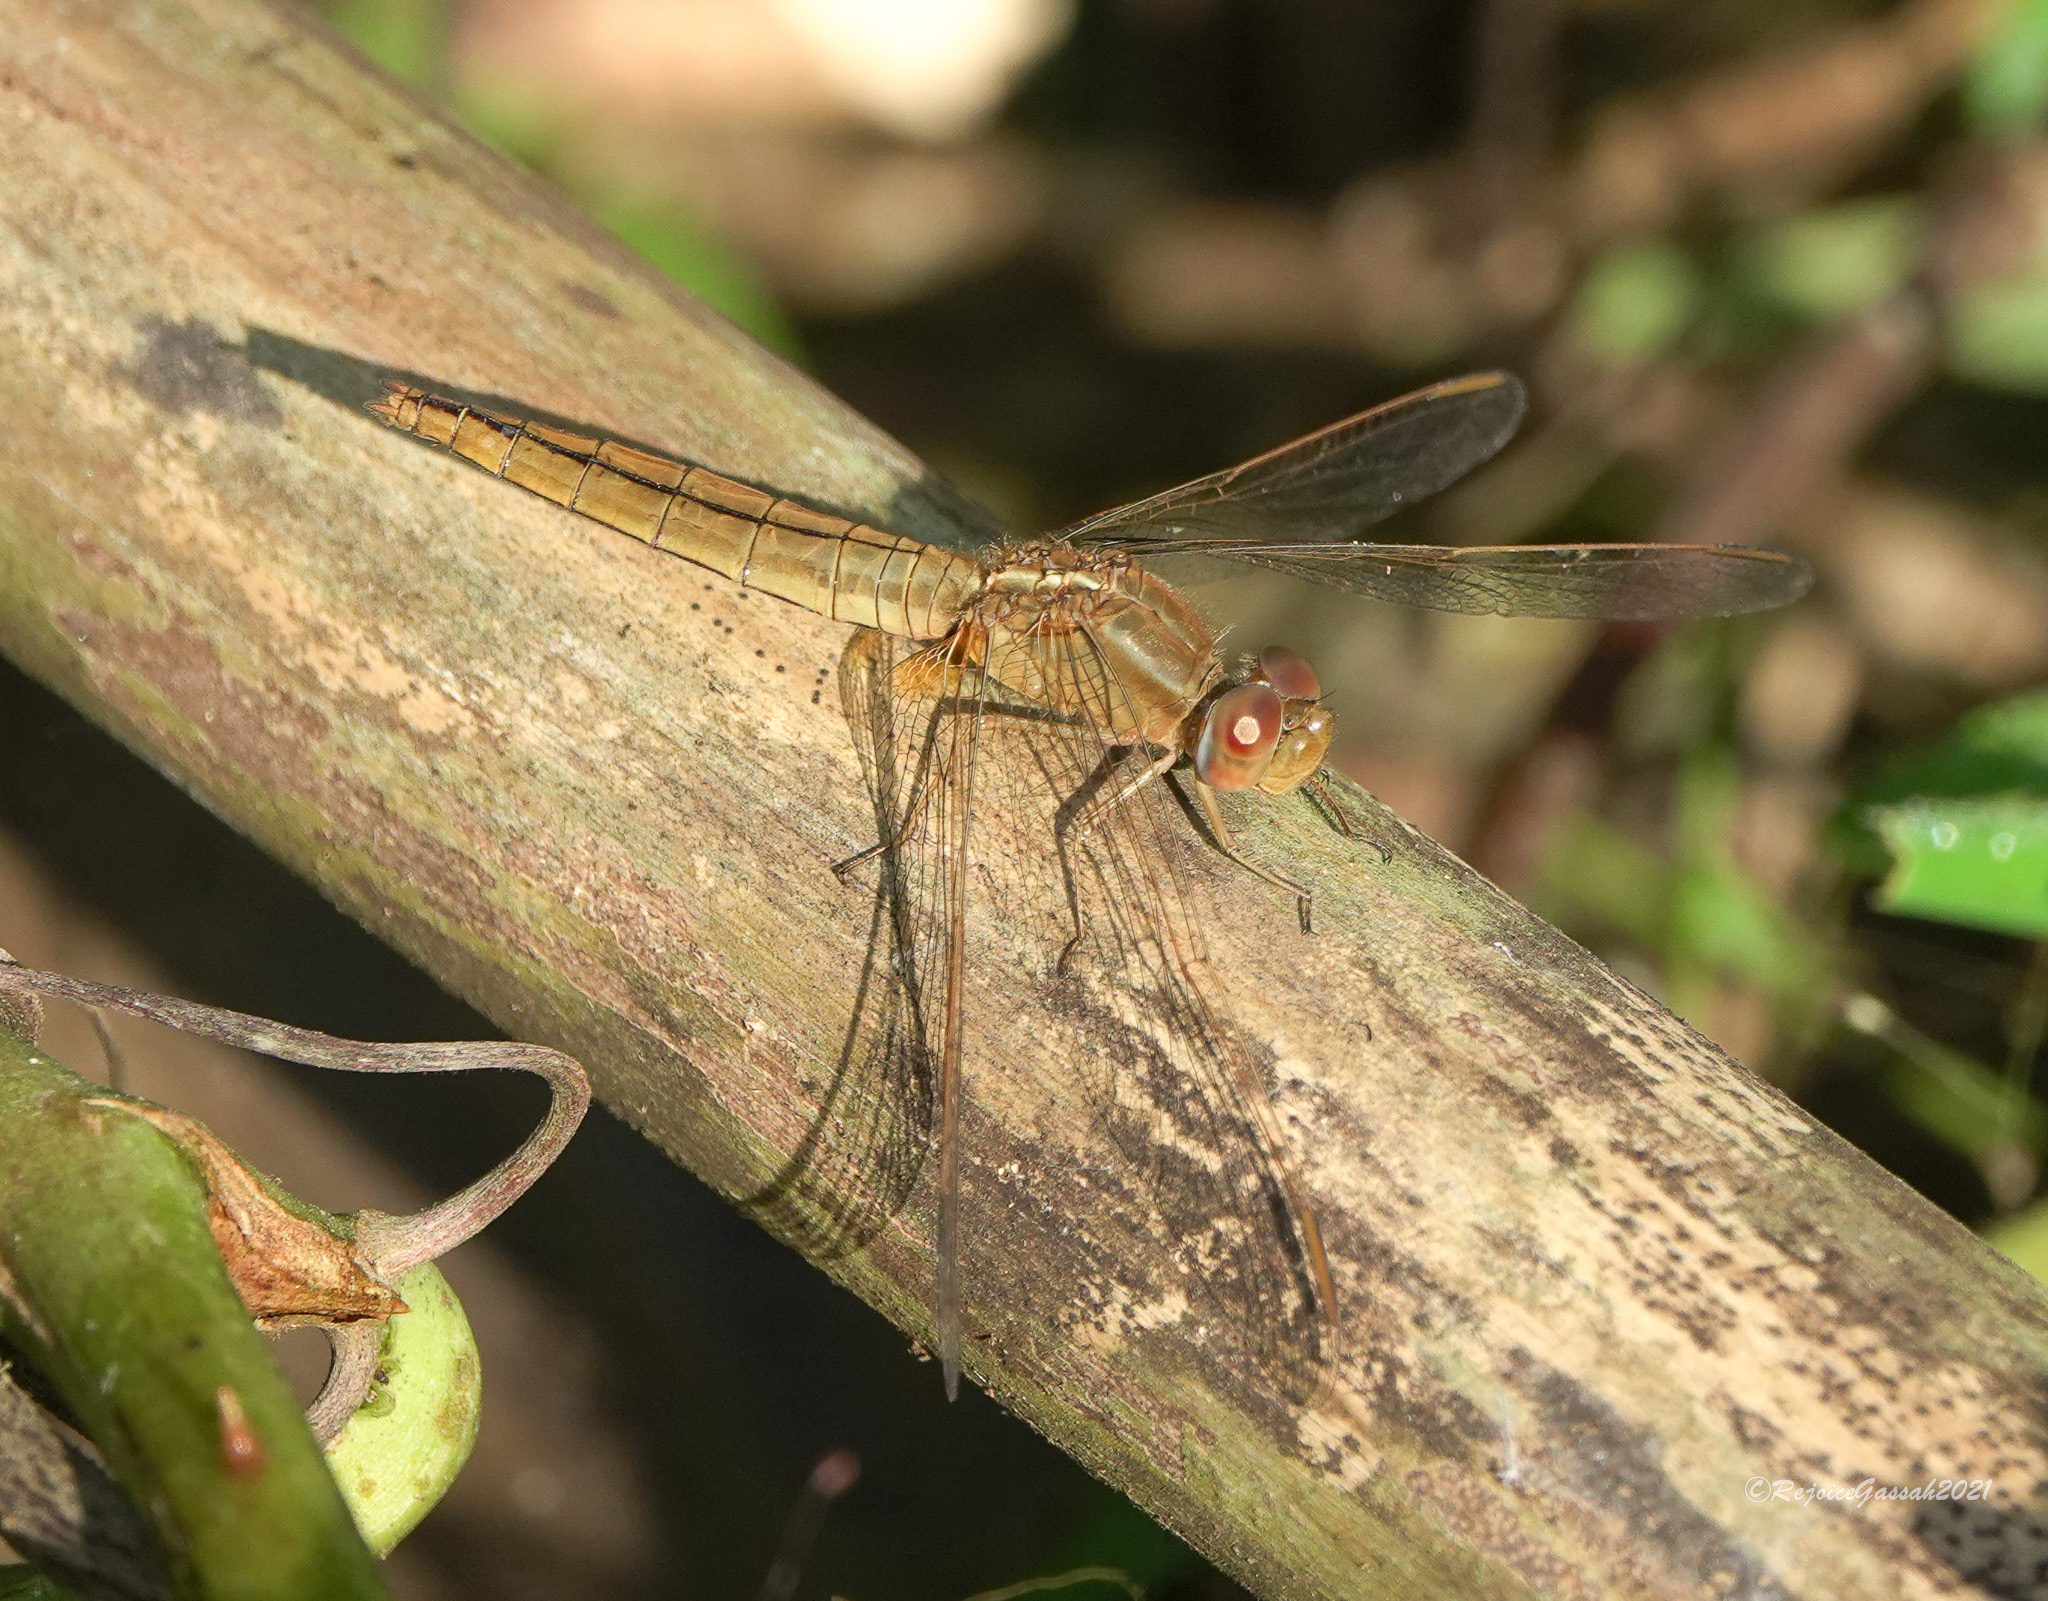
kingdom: Animalia
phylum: Arthropoda
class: Insecta
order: Odonata
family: Libellulidae
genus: Crocothemis
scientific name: Crocothemis servilia
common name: Scarlet skimmer
